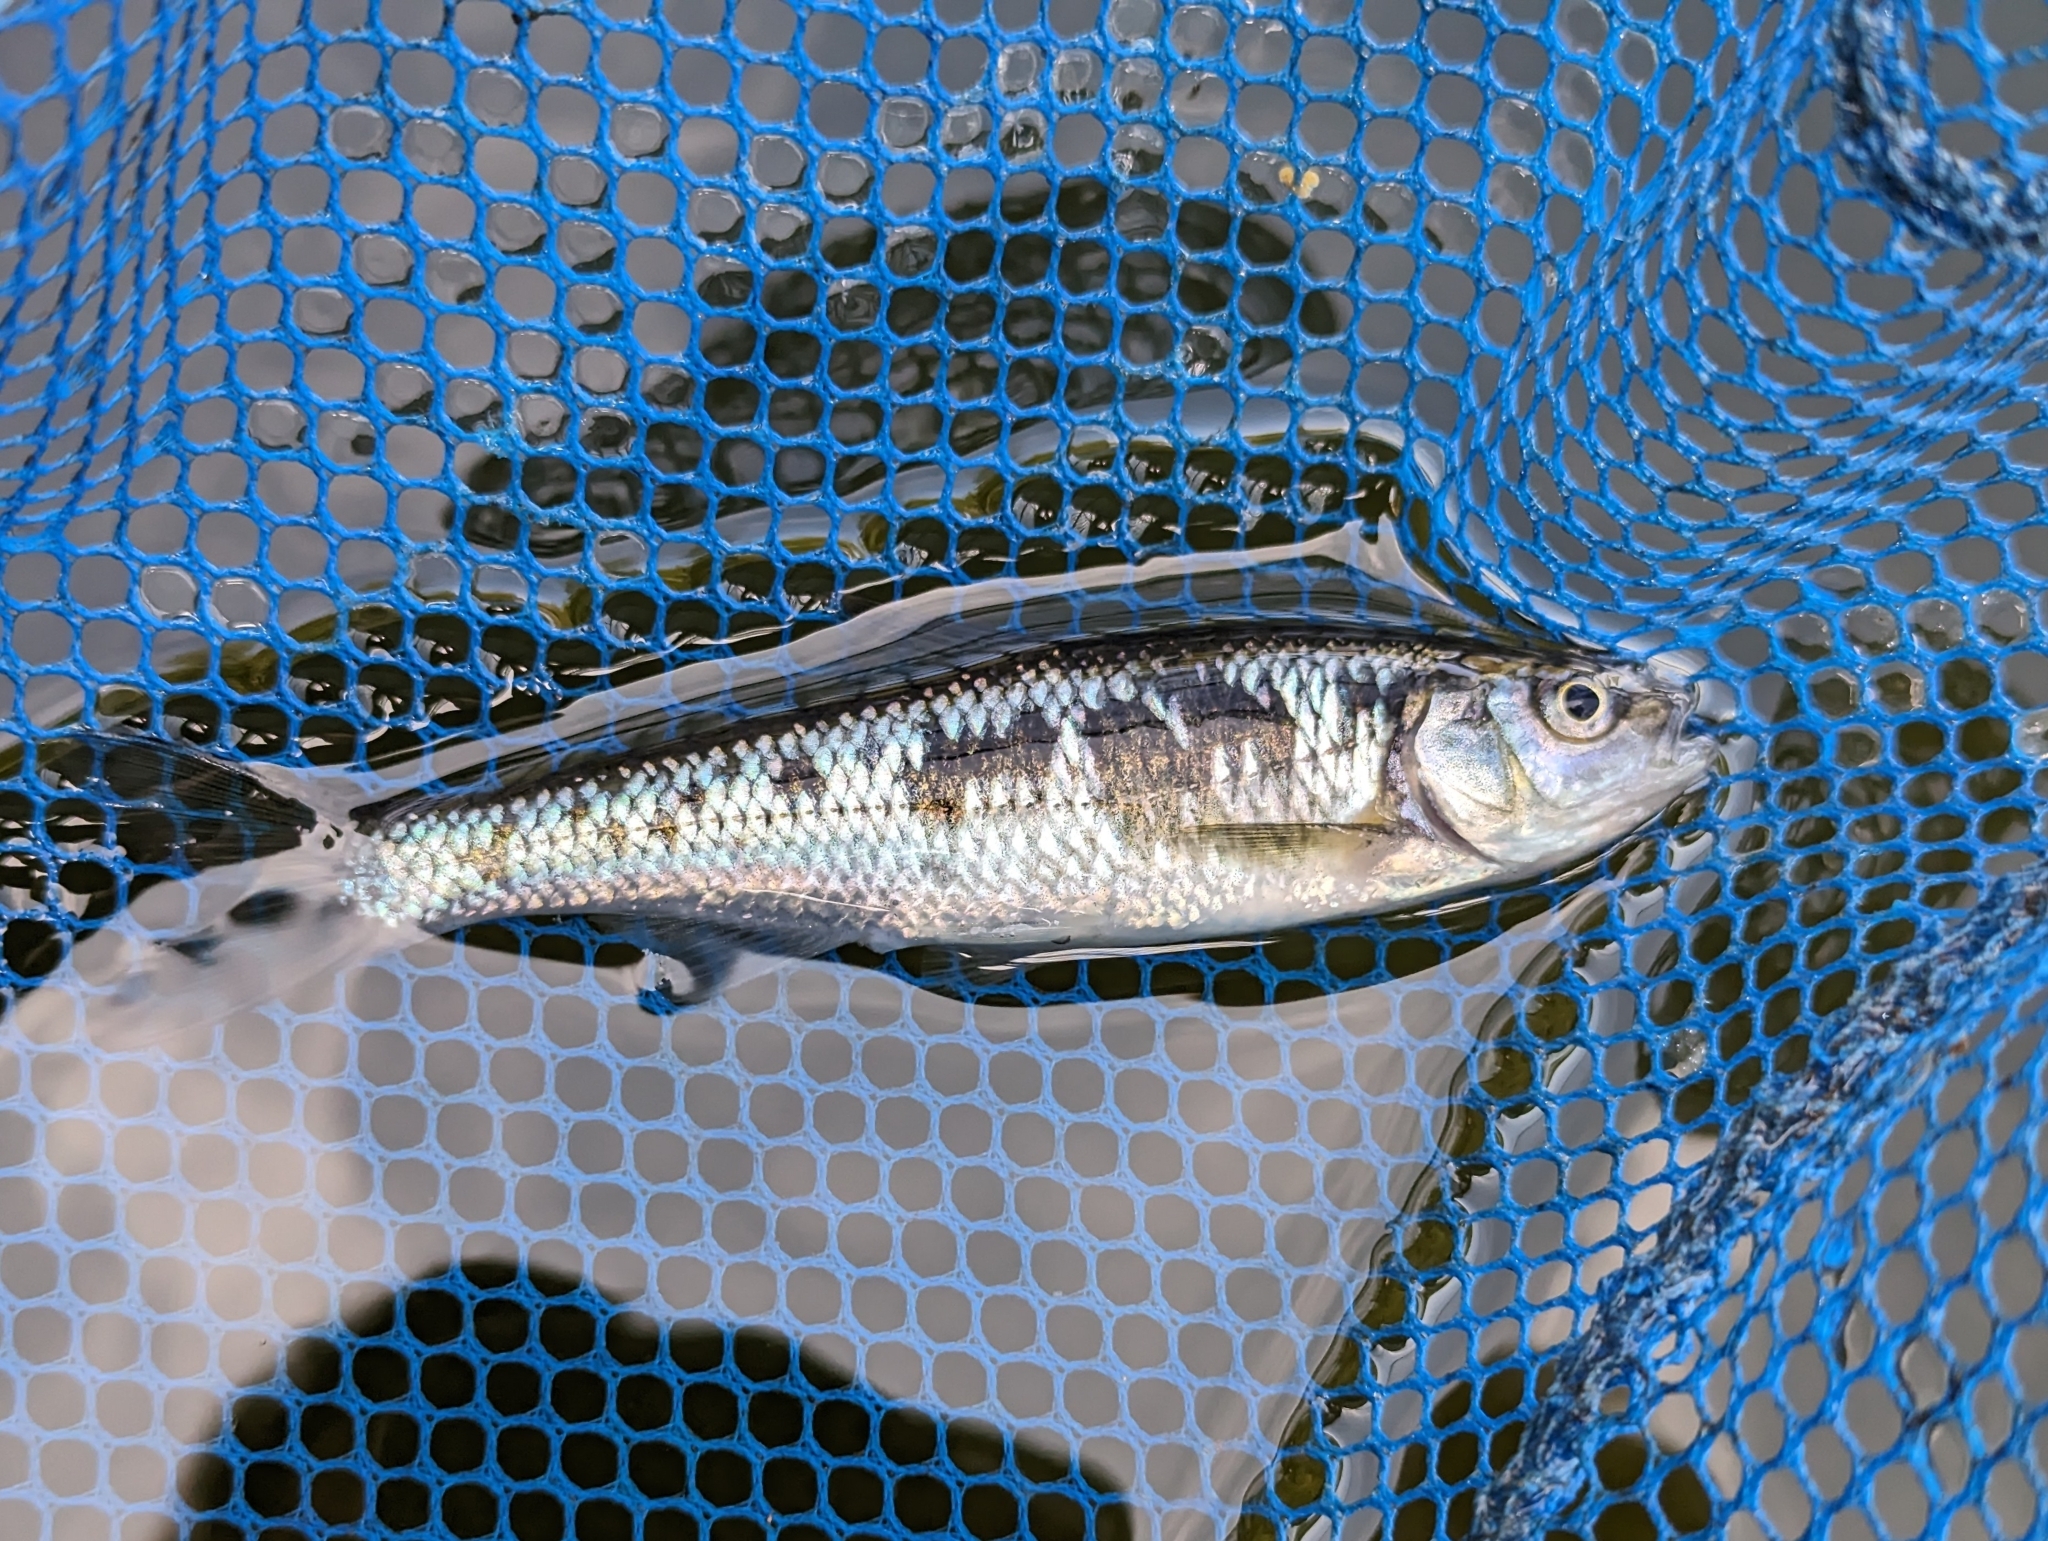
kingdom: Animalia
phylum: Chordata
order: Cypriniformes
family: Cyprinidae
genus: Luxilus
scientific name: Luxilus cornutus
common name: Common shiner
